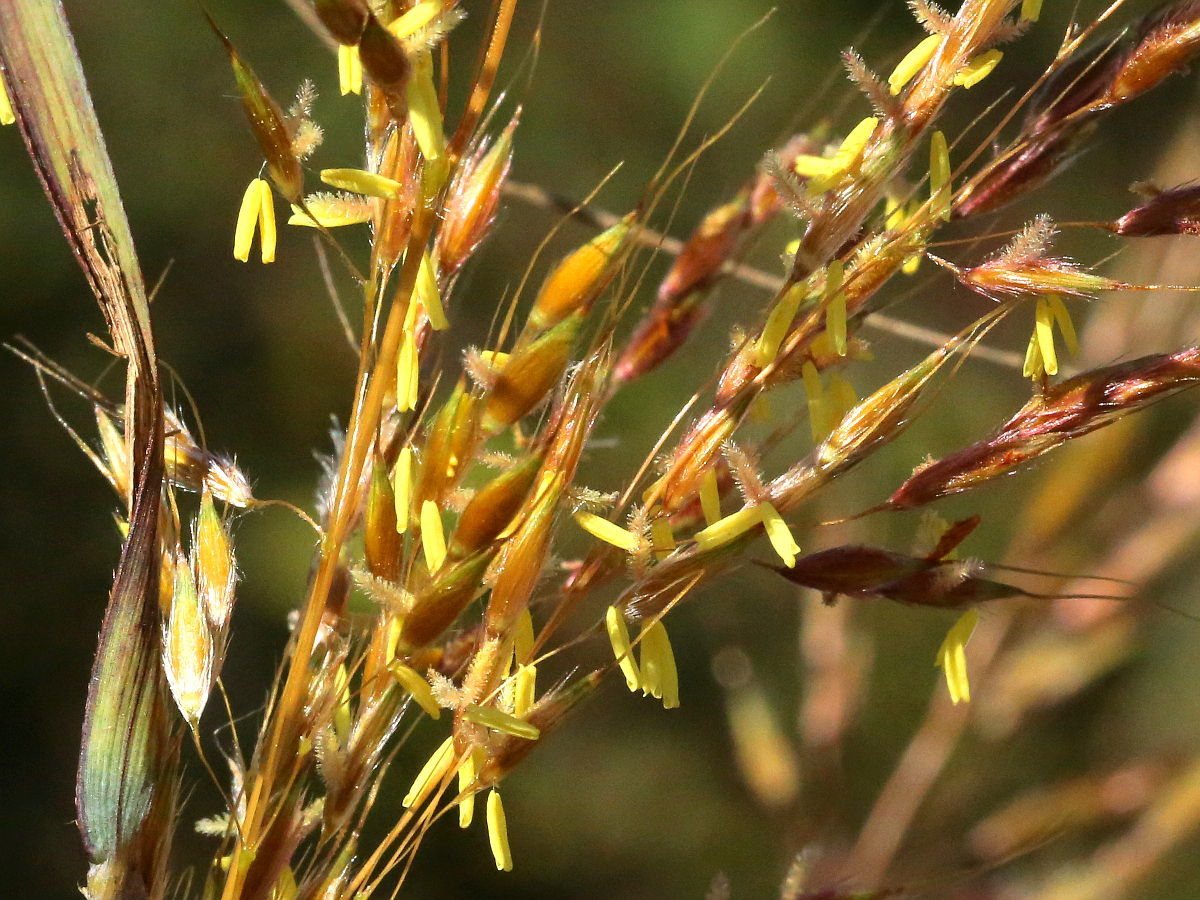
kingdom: Plantae
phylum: Tracheophyta
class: Liliopsida
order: Poales
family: Poaceae
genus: Sorghastrum
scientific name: Sorghastrum nutans
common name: Indian grass
